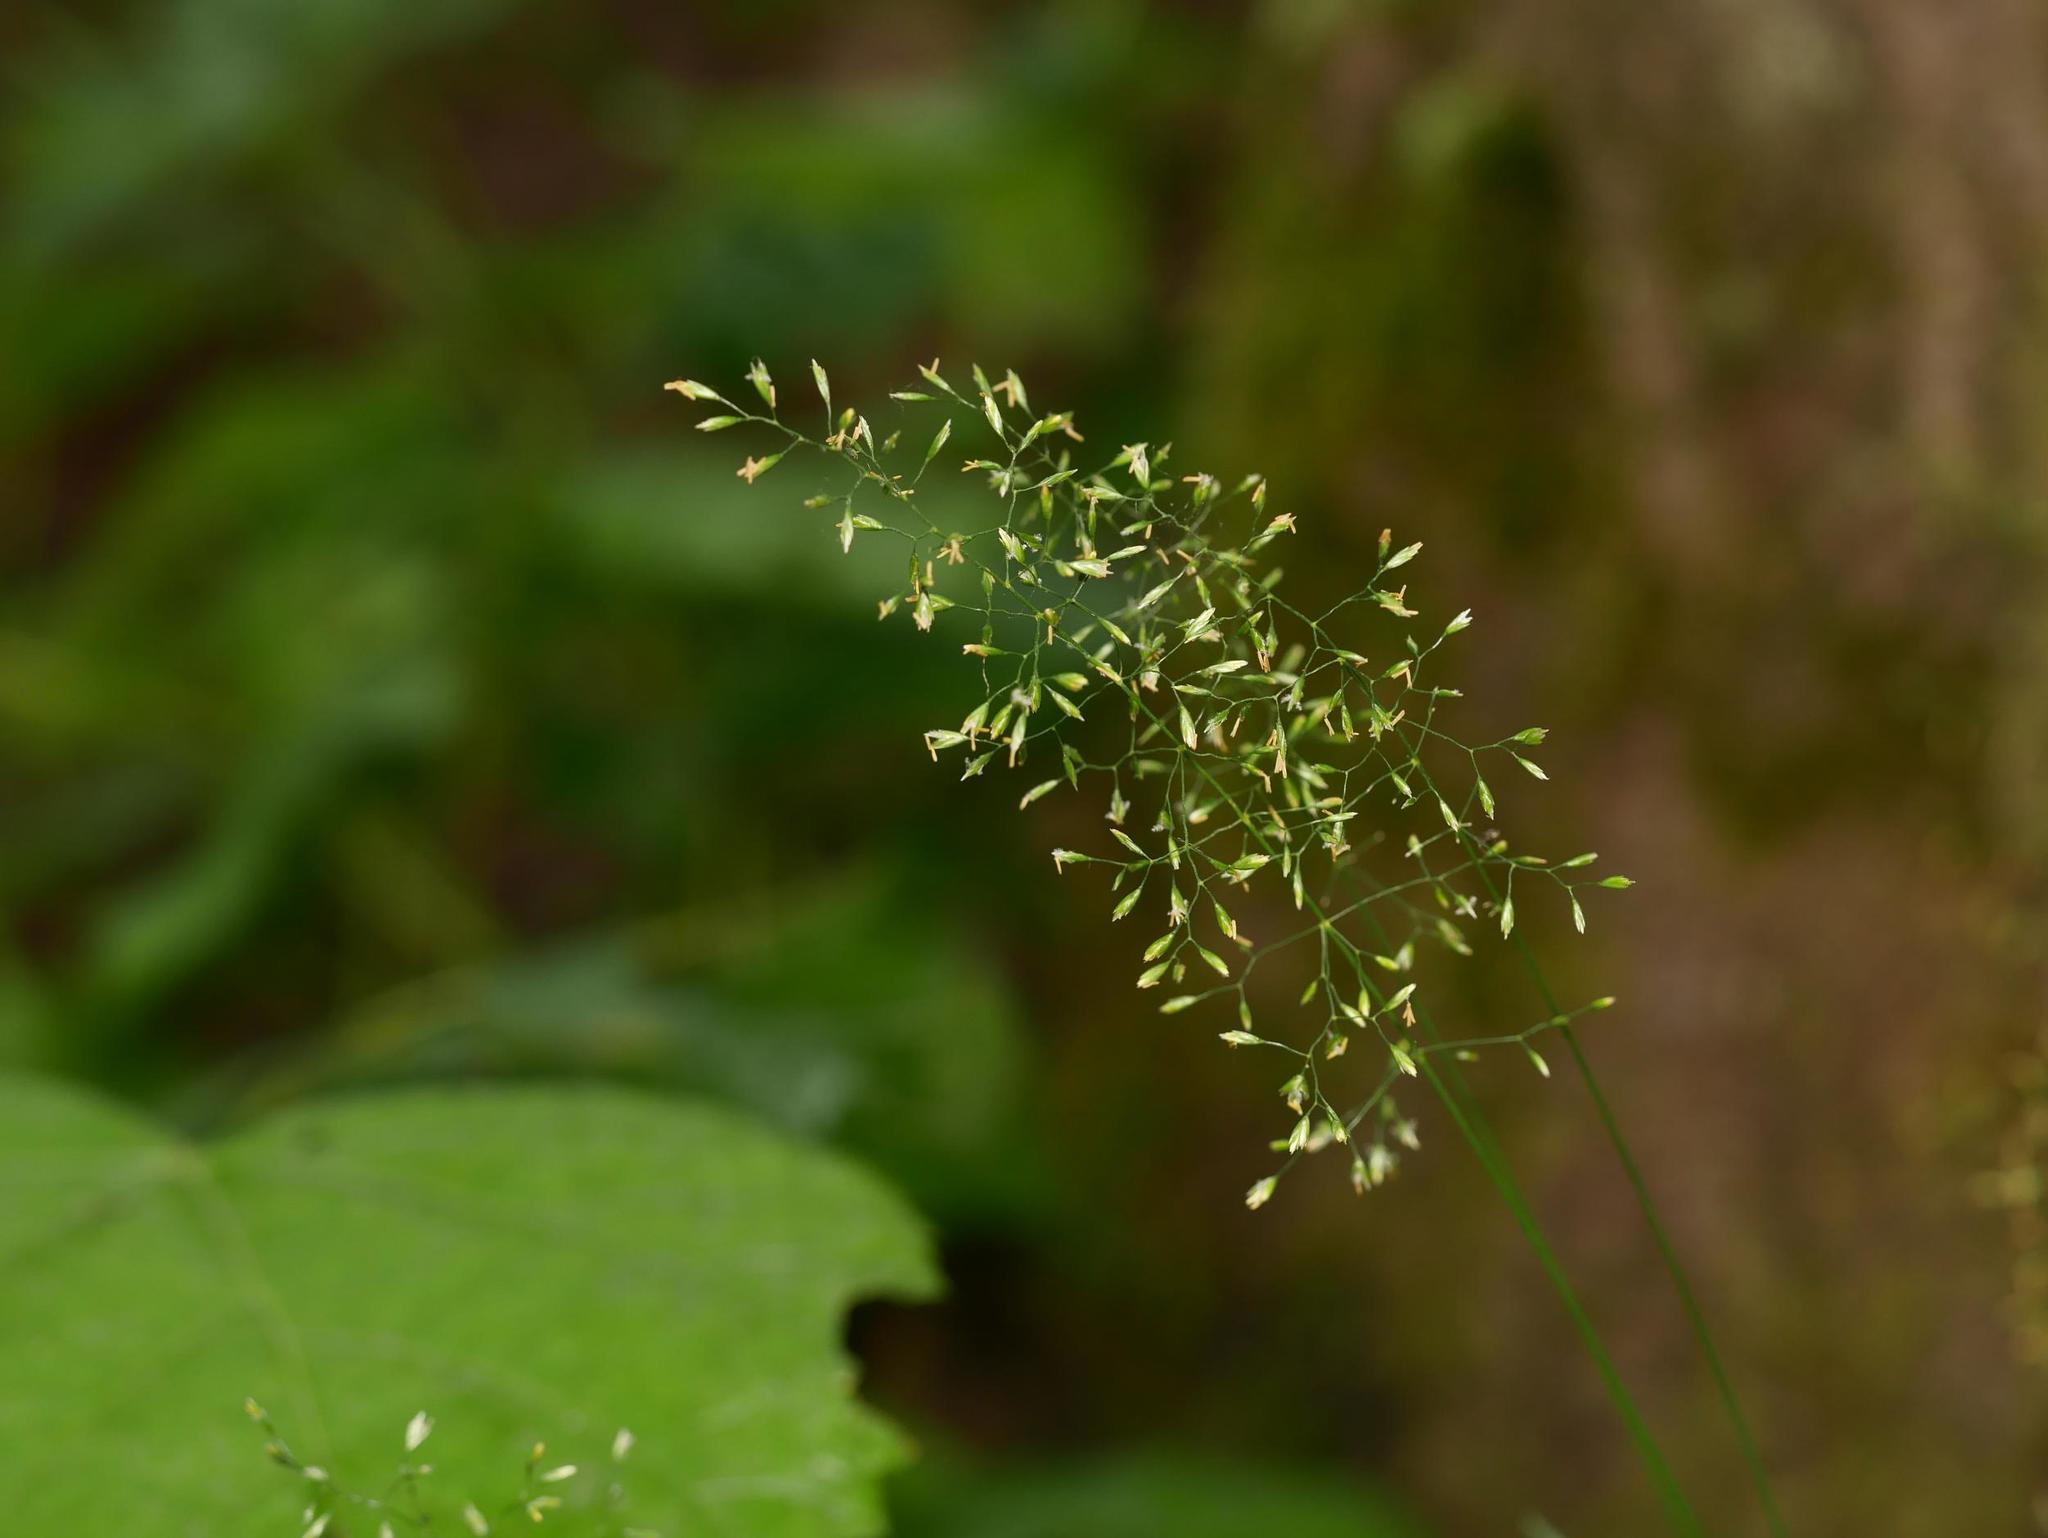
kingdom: Plantae
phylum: Tracheophyta
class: Liliopsida
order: Poales
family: Poaceae
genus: Poa
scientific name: Poa nemoralis
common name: Wood bluegrass
